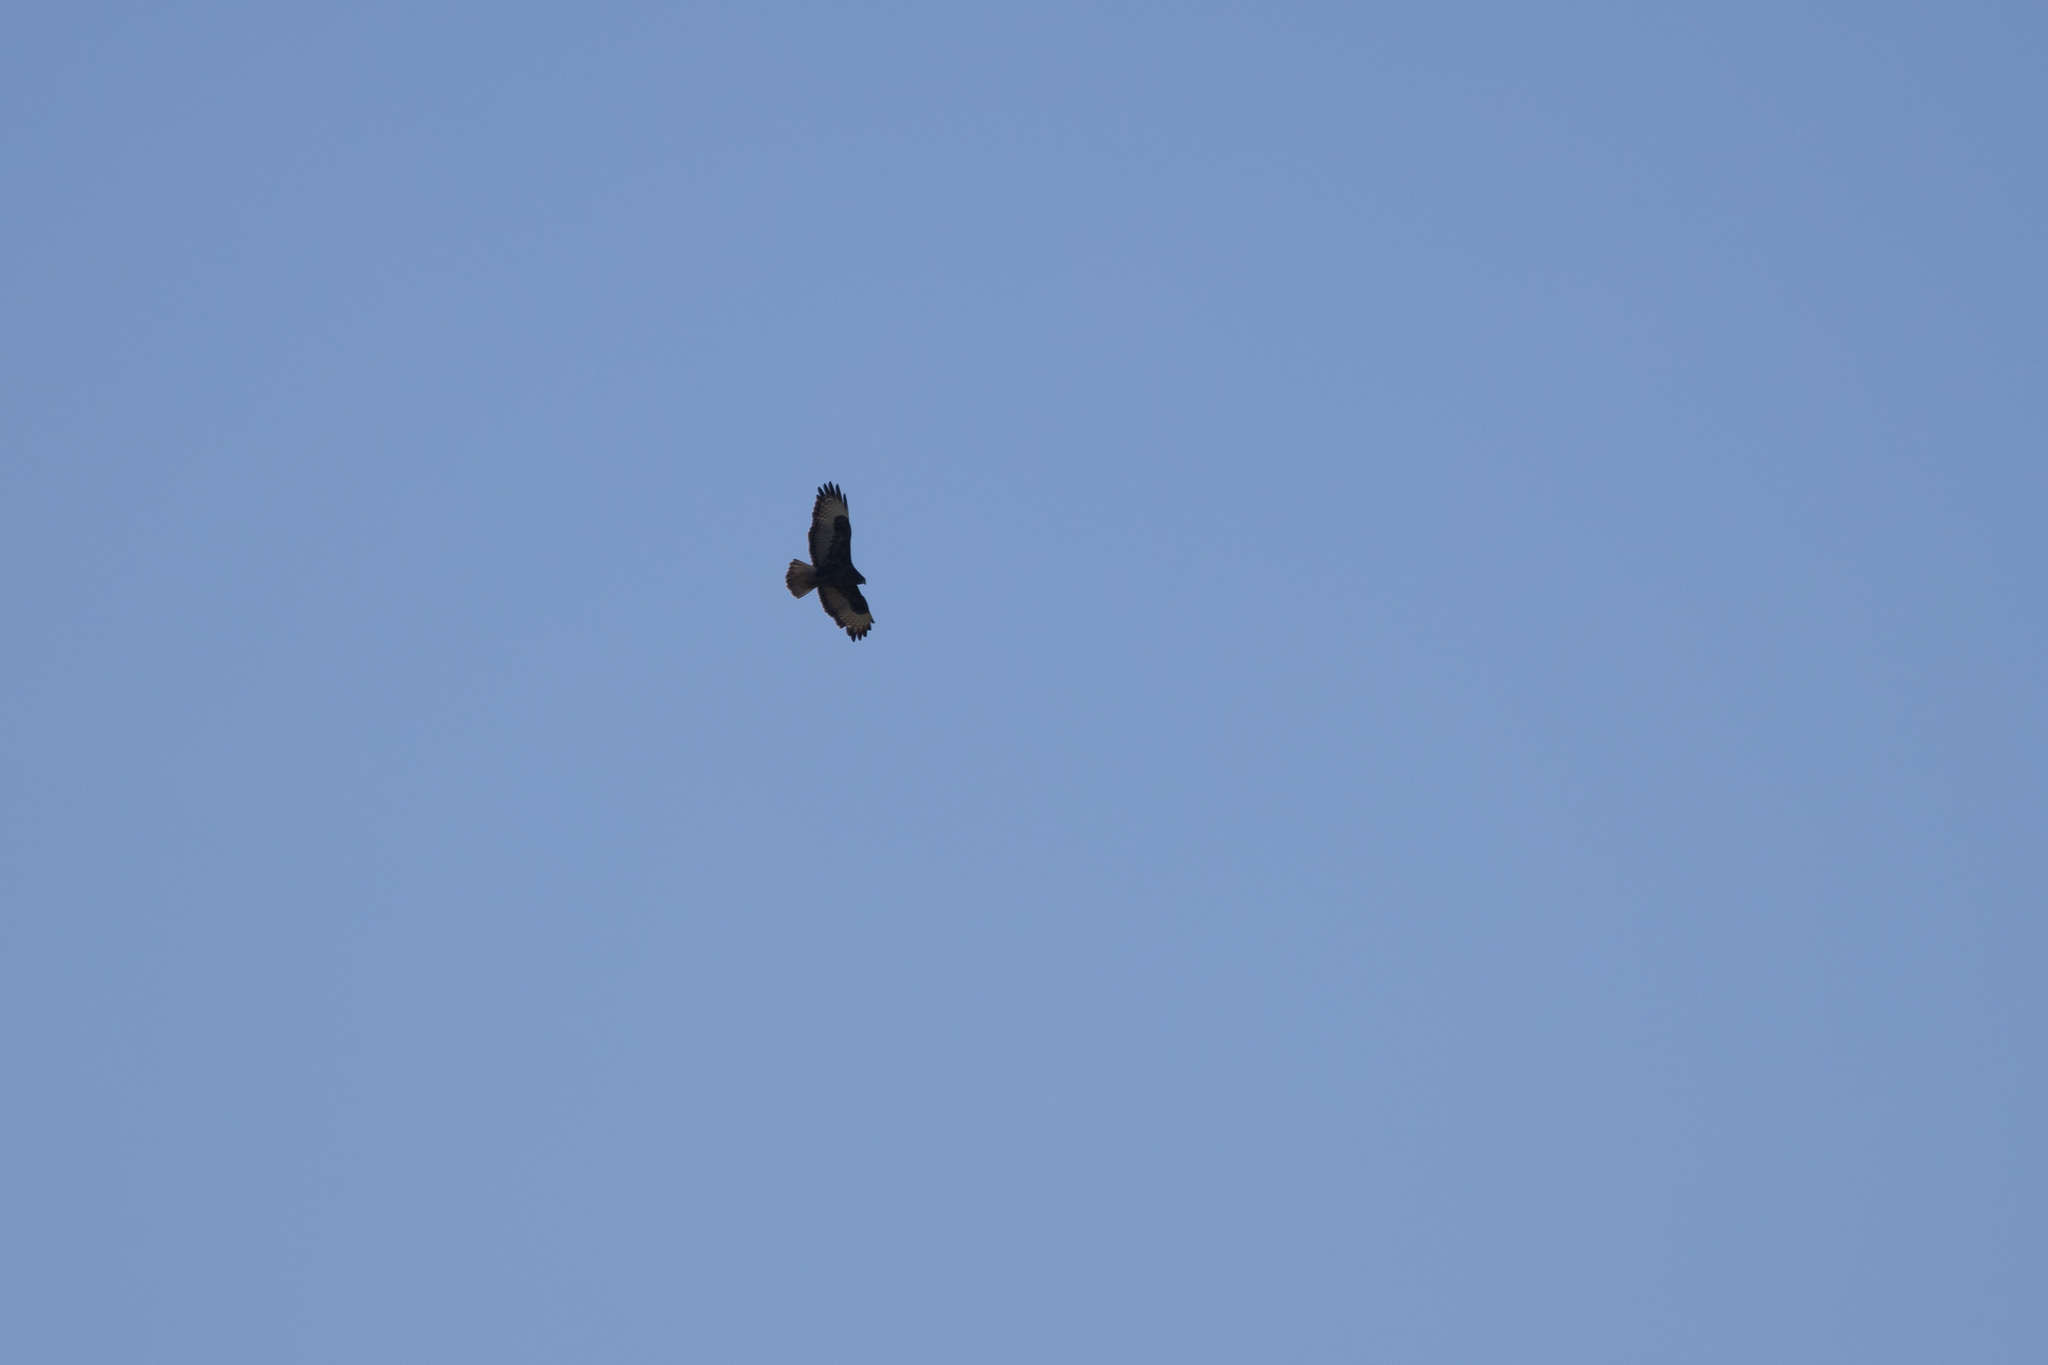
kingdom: Animalia
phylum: Chordata
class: Aves
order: Accipitriformes
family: Accipitridae
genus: Buteo
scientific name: Buteo buteo
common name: Common buzzard
